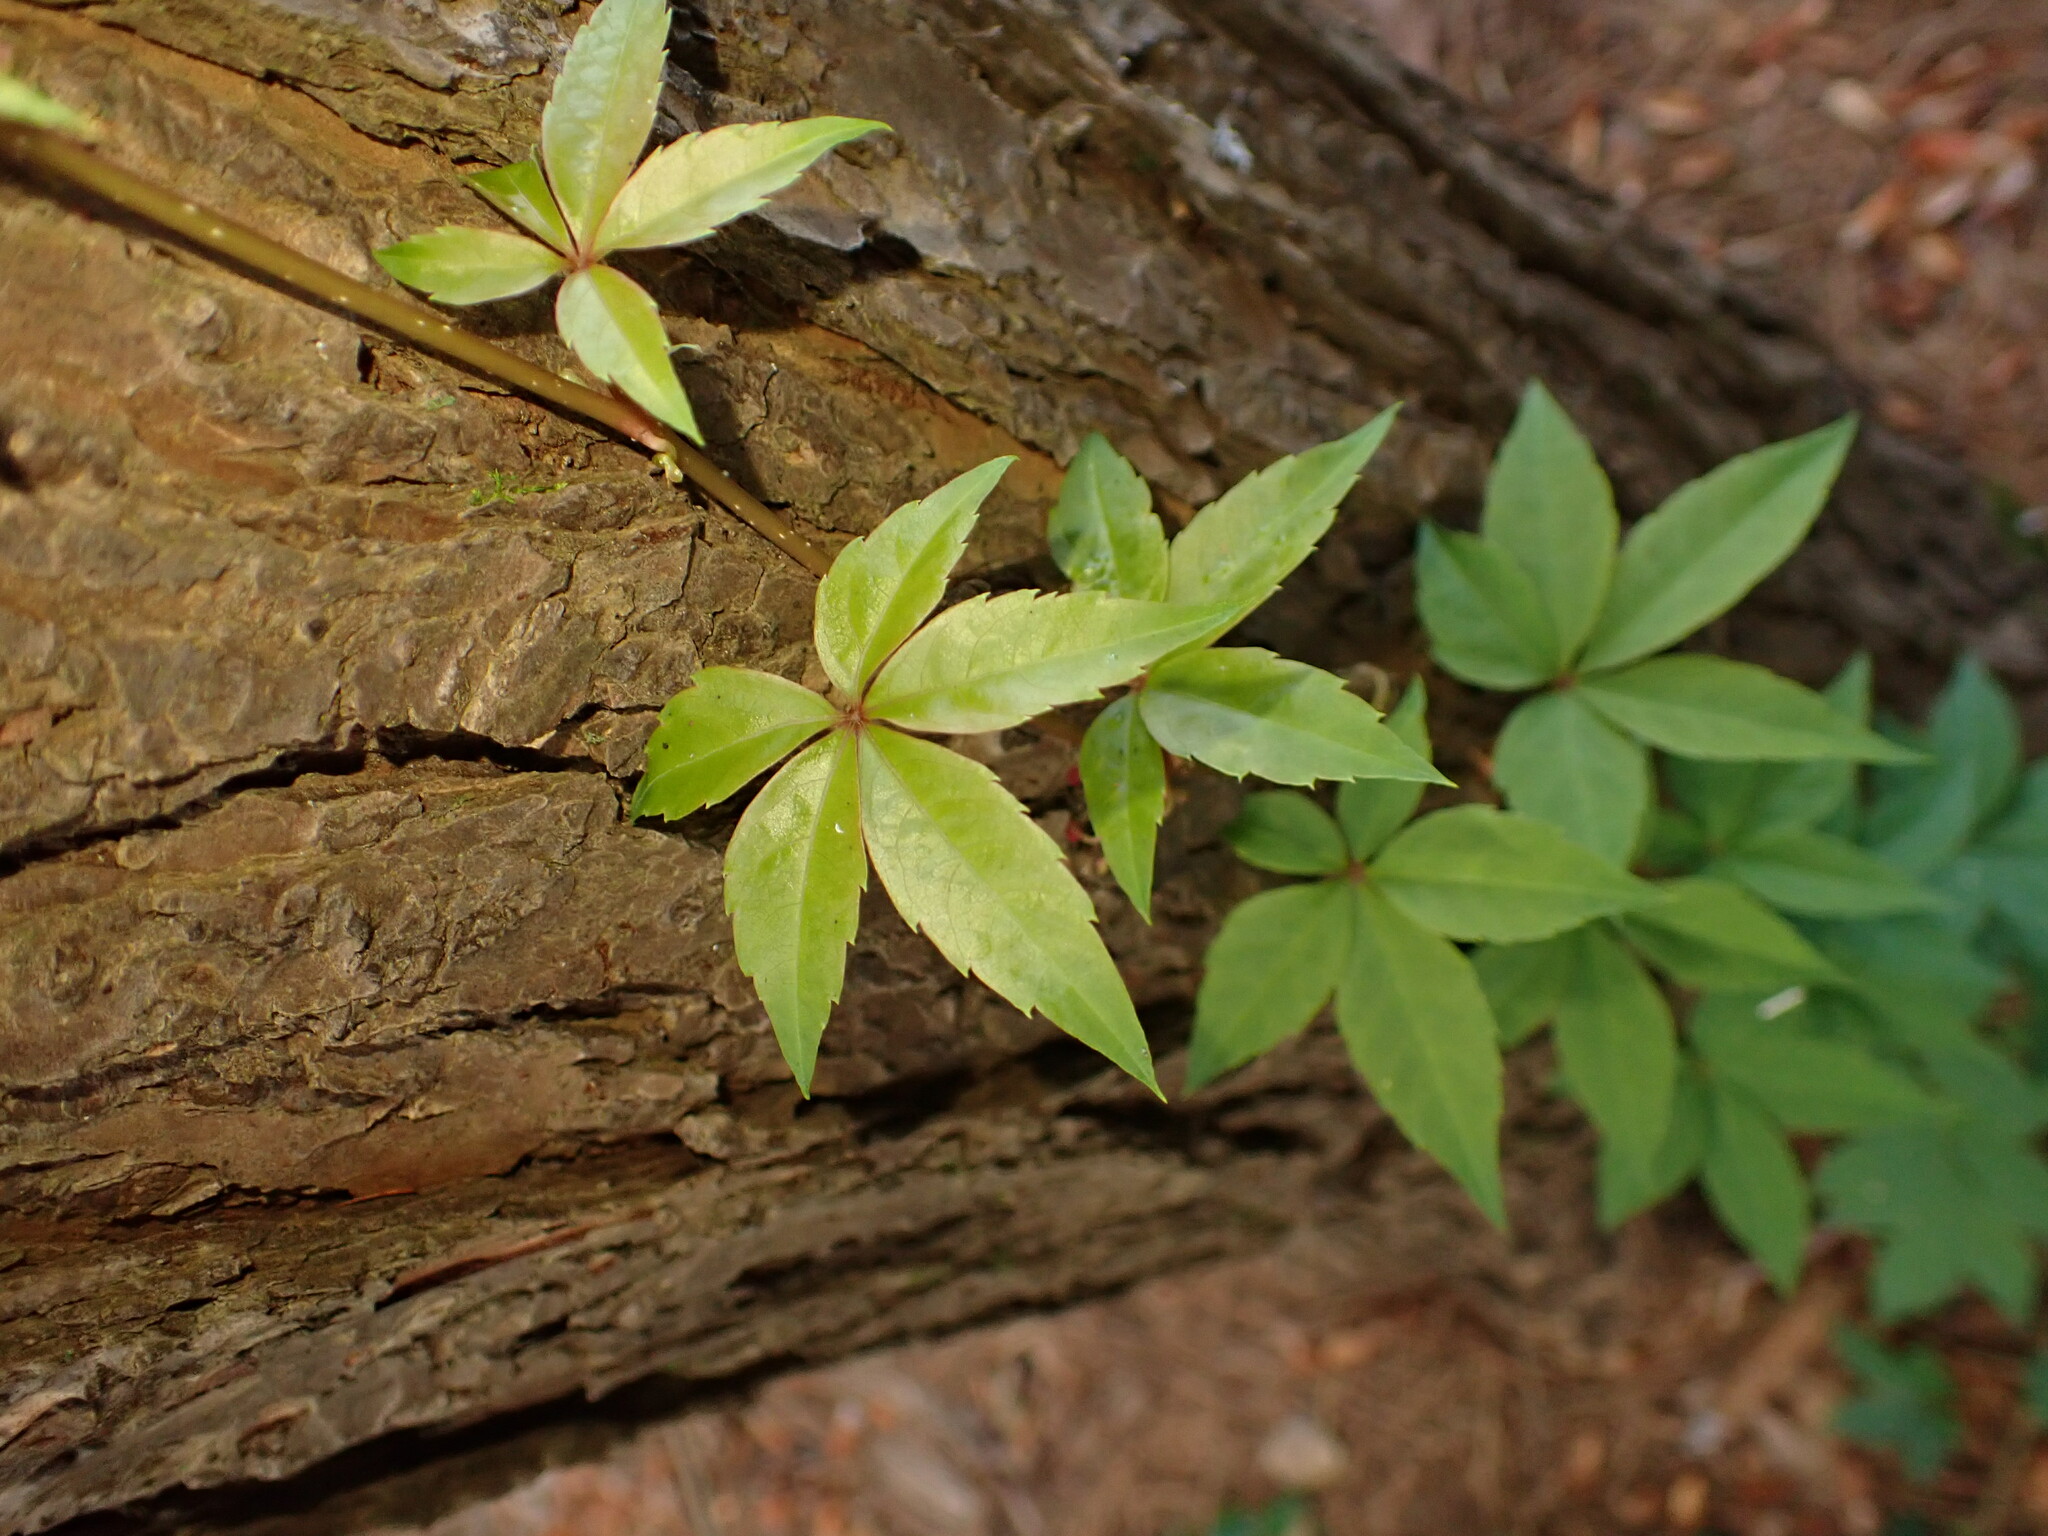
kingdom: Plantae
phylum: Tracheophyta
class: Magnoliopsida
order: Vitales
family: Vitaceae
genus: Parthenocissus
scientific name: Parthenocissus quinquefolia
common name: Virginia-creeper
